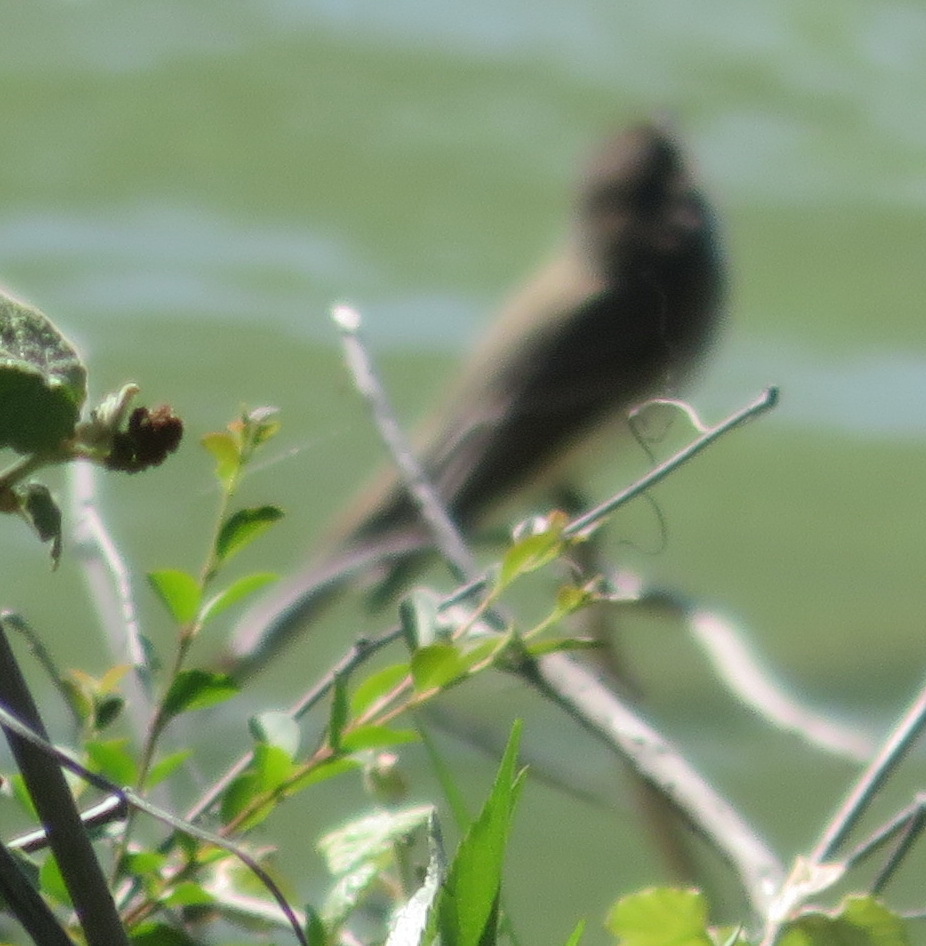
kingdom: Animalia
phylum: Chordata
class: Aves
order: Passeriformes
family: Tyrannidae
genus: Sayornis
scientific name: Sayornis phoebe
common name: Eastern phoebe
